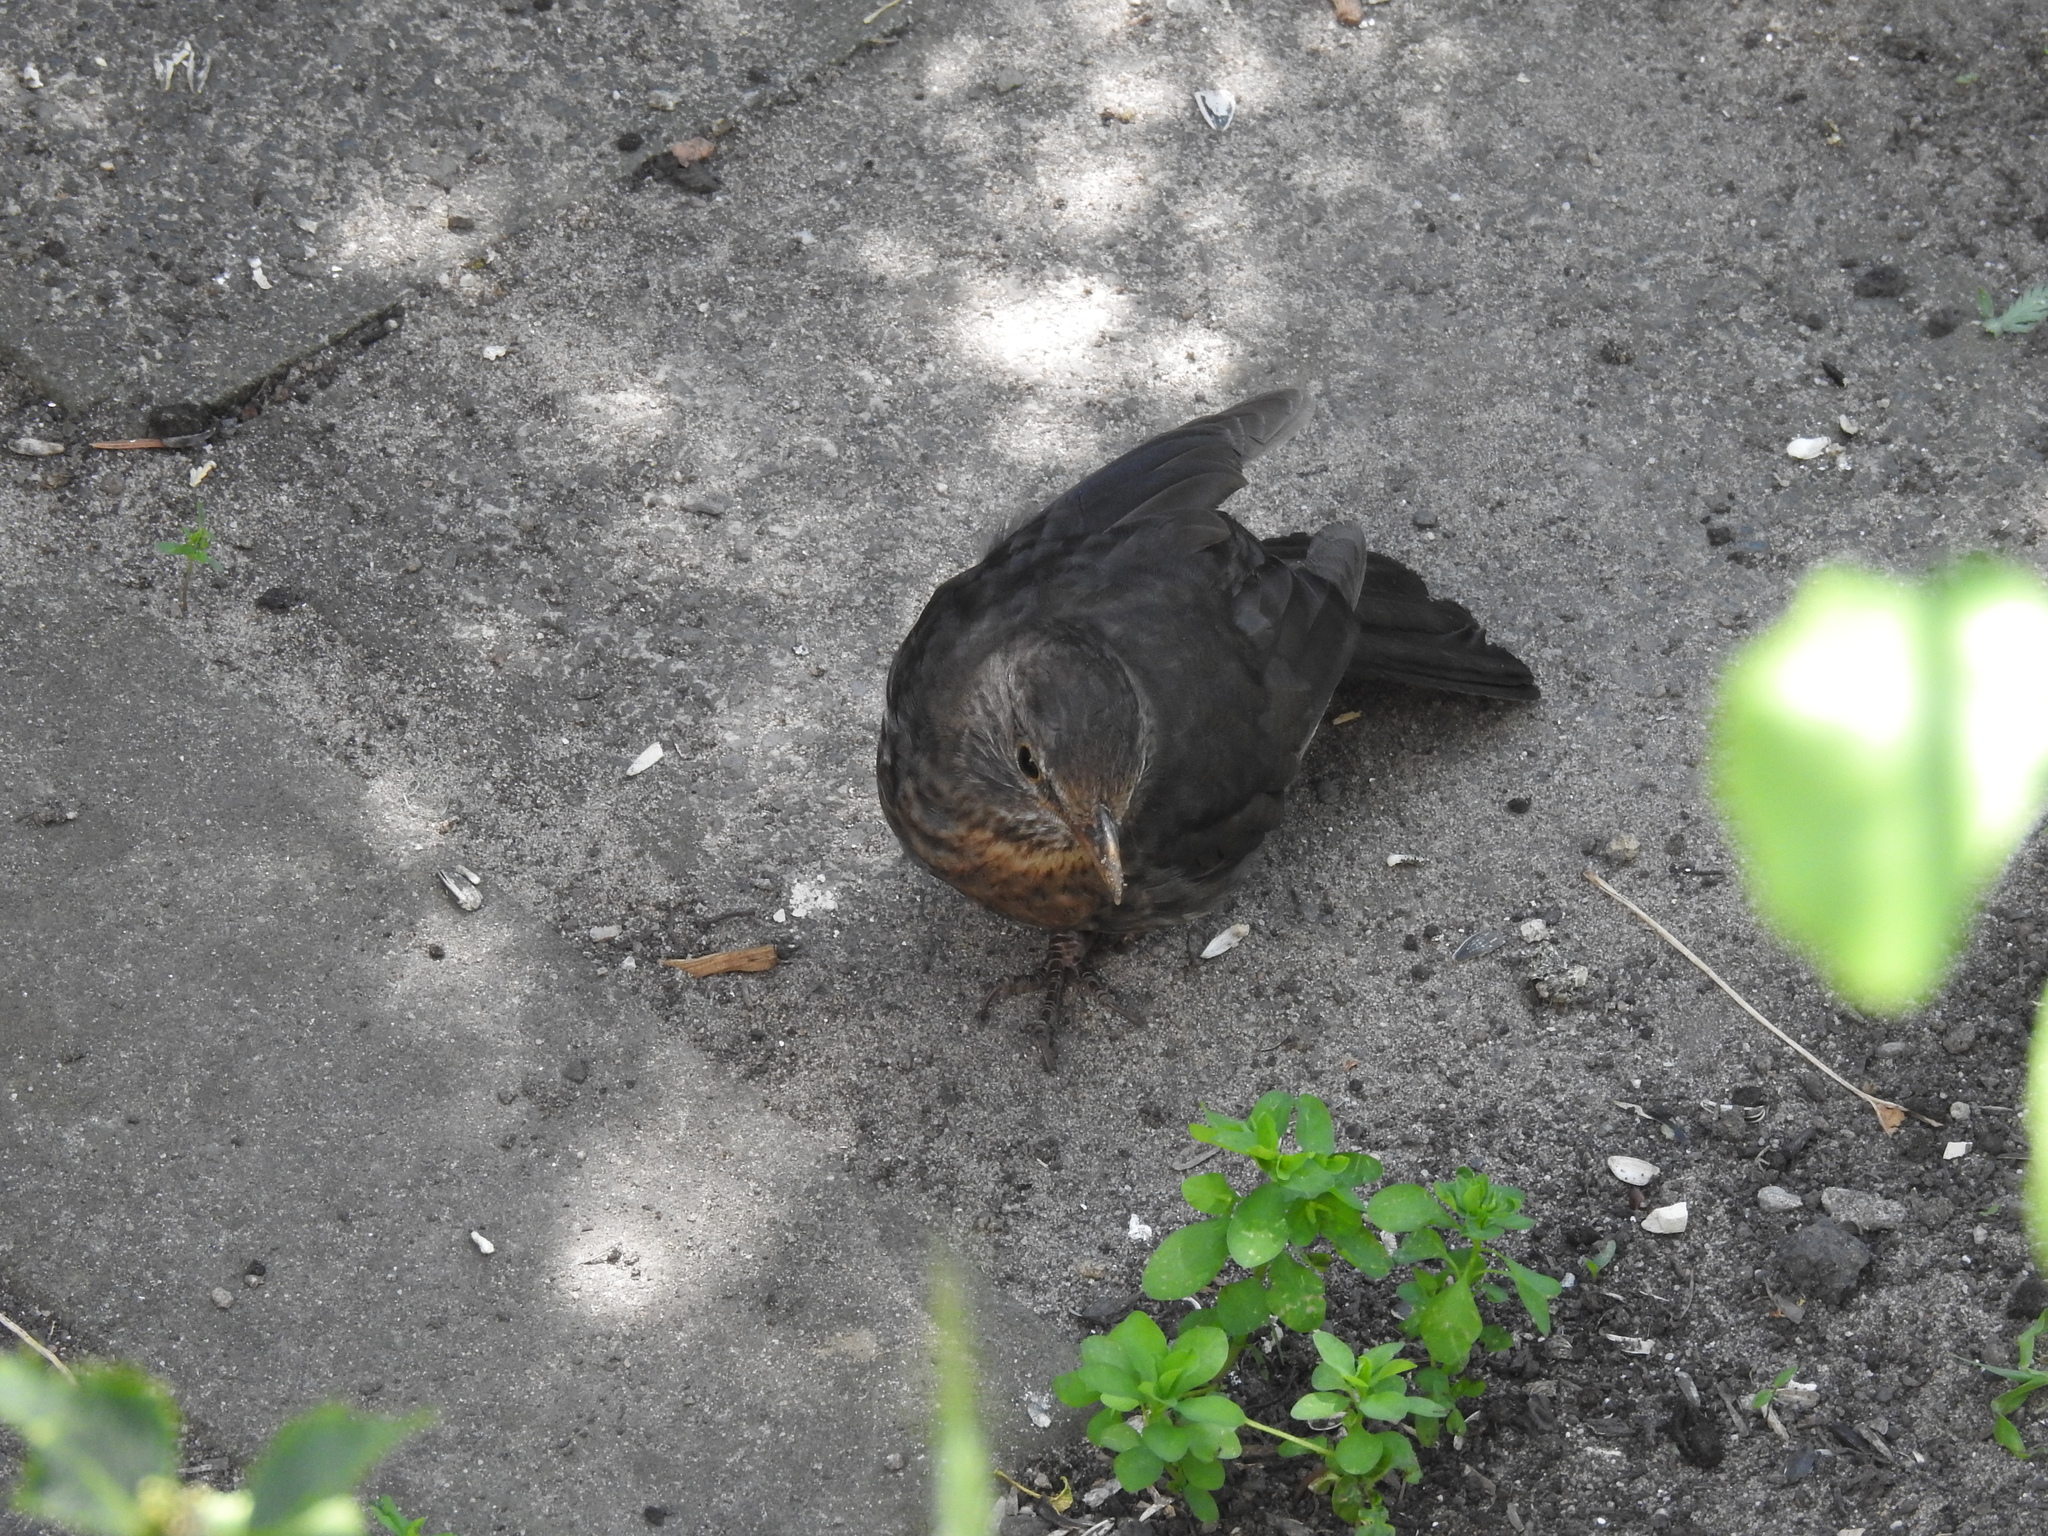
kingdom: Animalia
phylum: Chordata
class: Aves
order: Passeriformes
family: Turdidae
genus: Turdus
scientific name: Turdus merula
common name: Common blackbird
